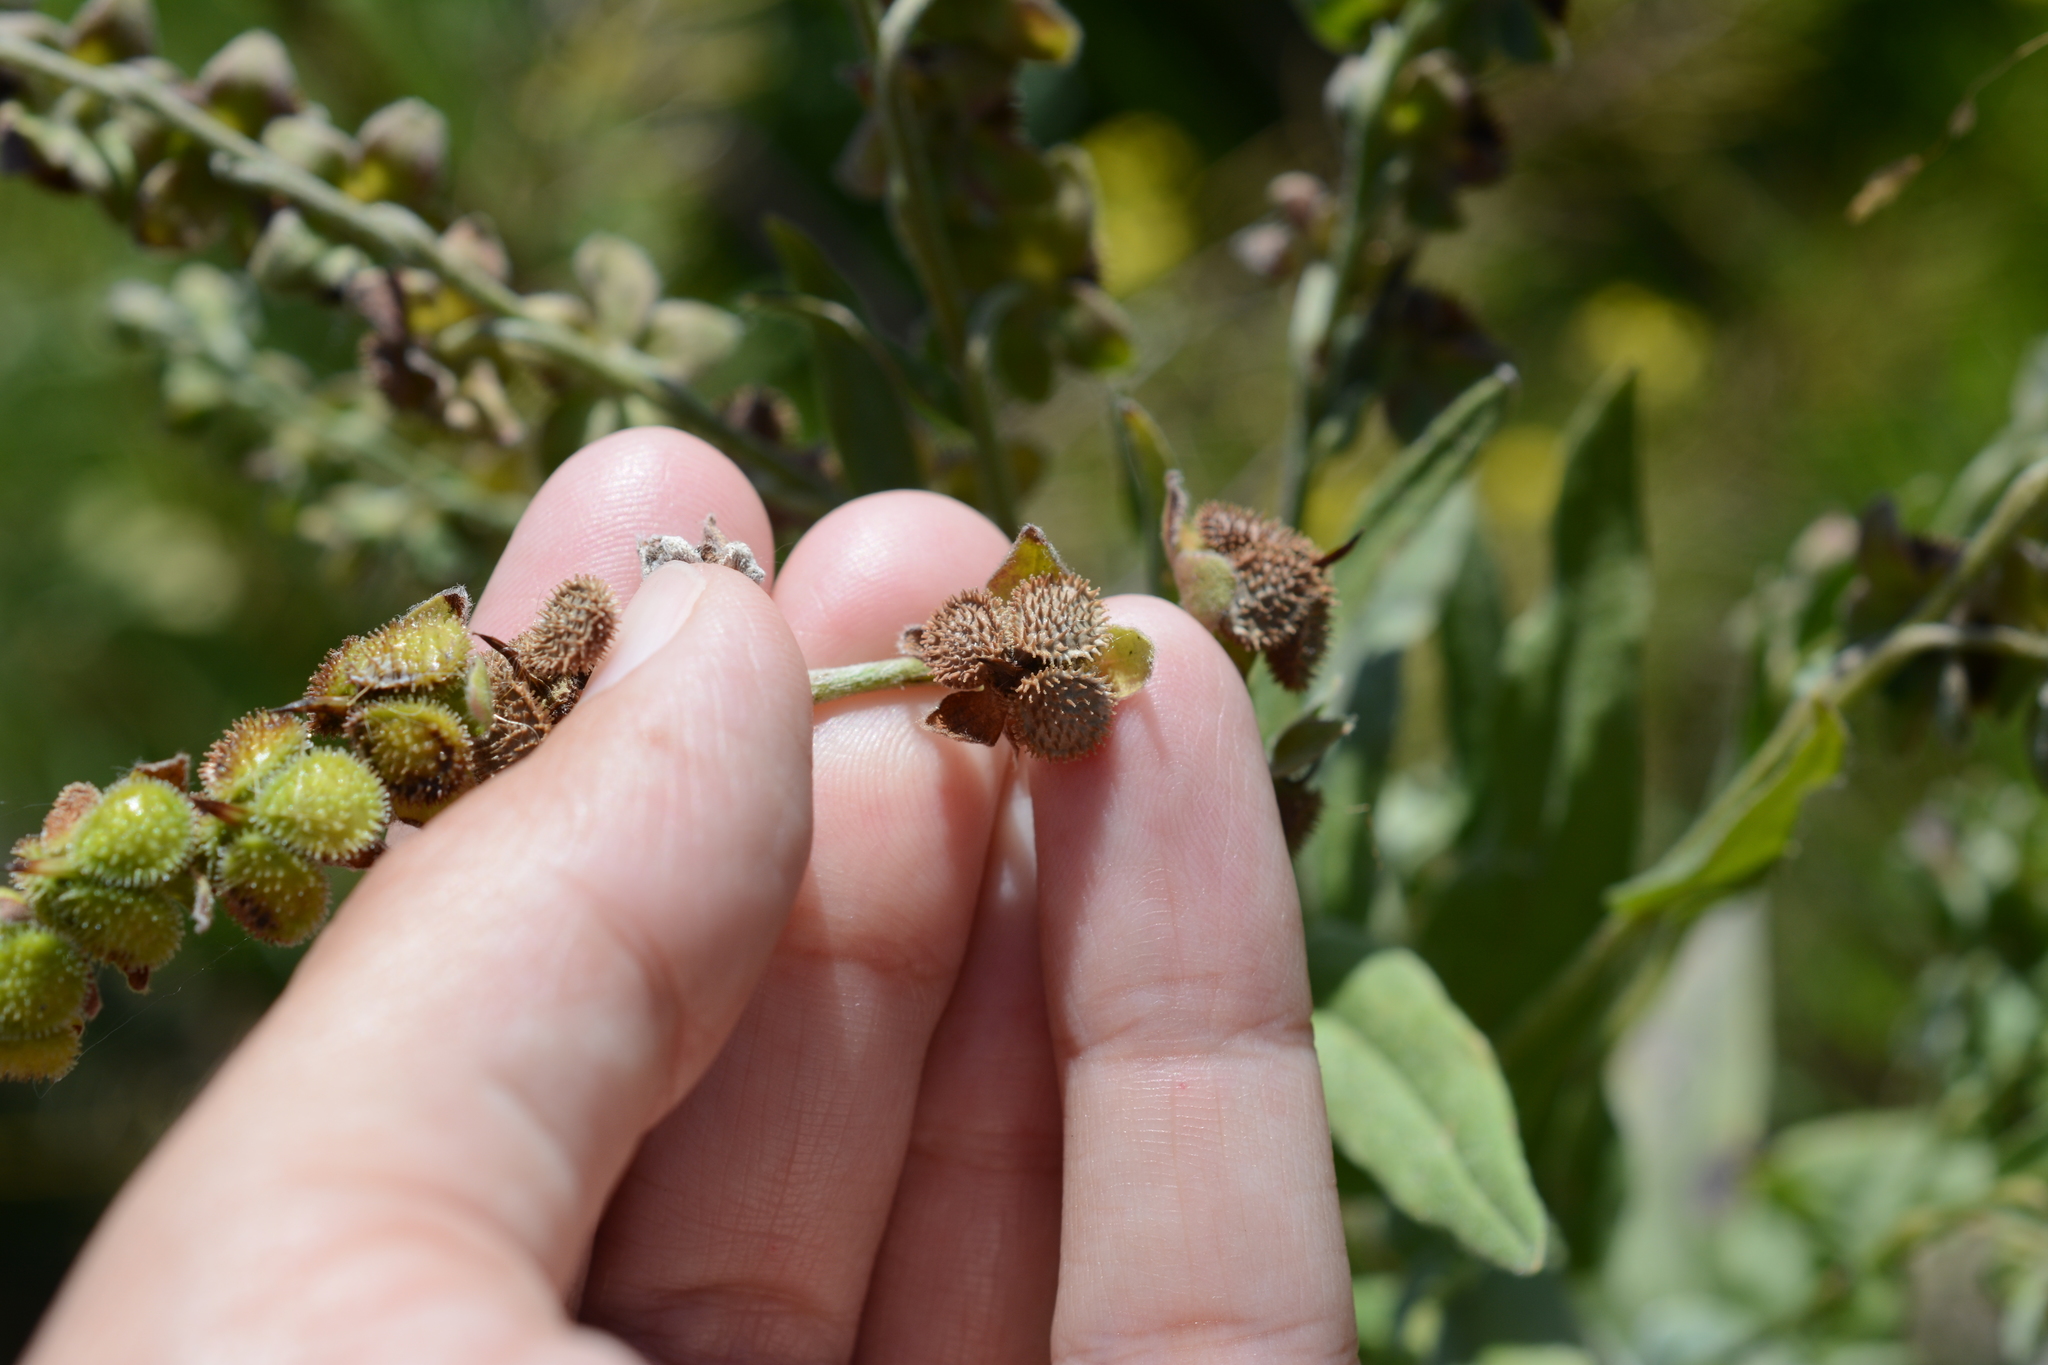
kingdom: Plantae
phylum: Tracheophyta
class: Magnoliopsida
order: Boraginales
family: Boraginaceae
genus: Cynoglossum
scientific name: Cynoglossum officinale
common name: Hound's-tongue
